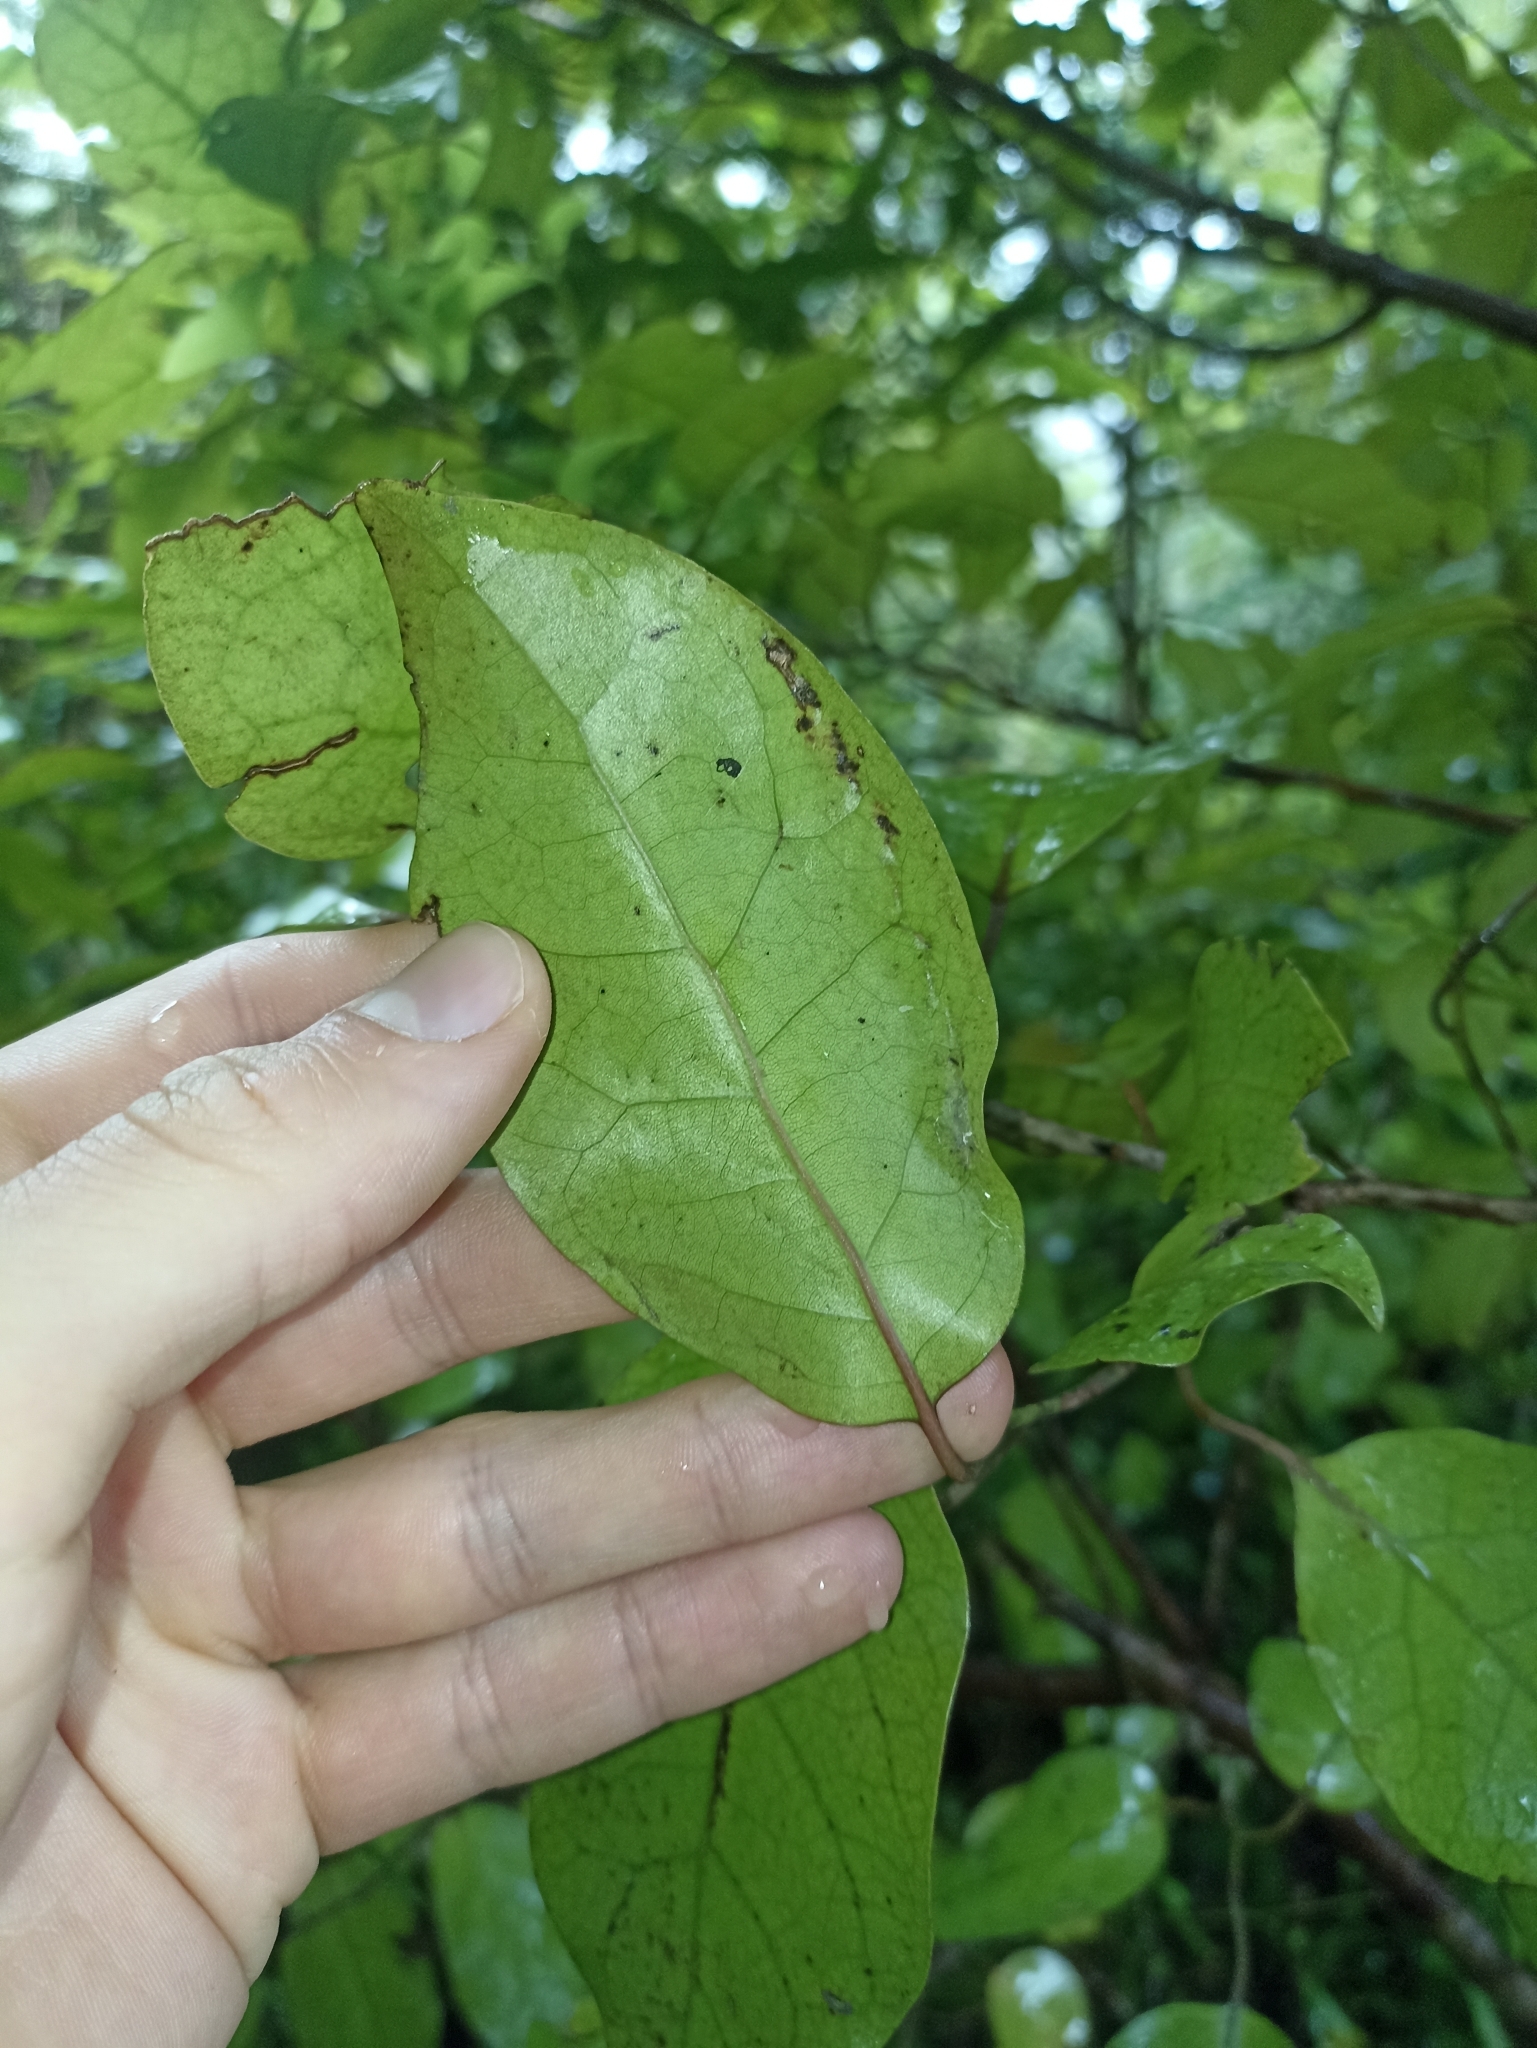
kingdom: Plantae
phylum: Tracheophyta
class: Magnoliopsida
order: Laurales
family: Lauraceae
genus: Litsea
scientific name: Litsea calicaris
